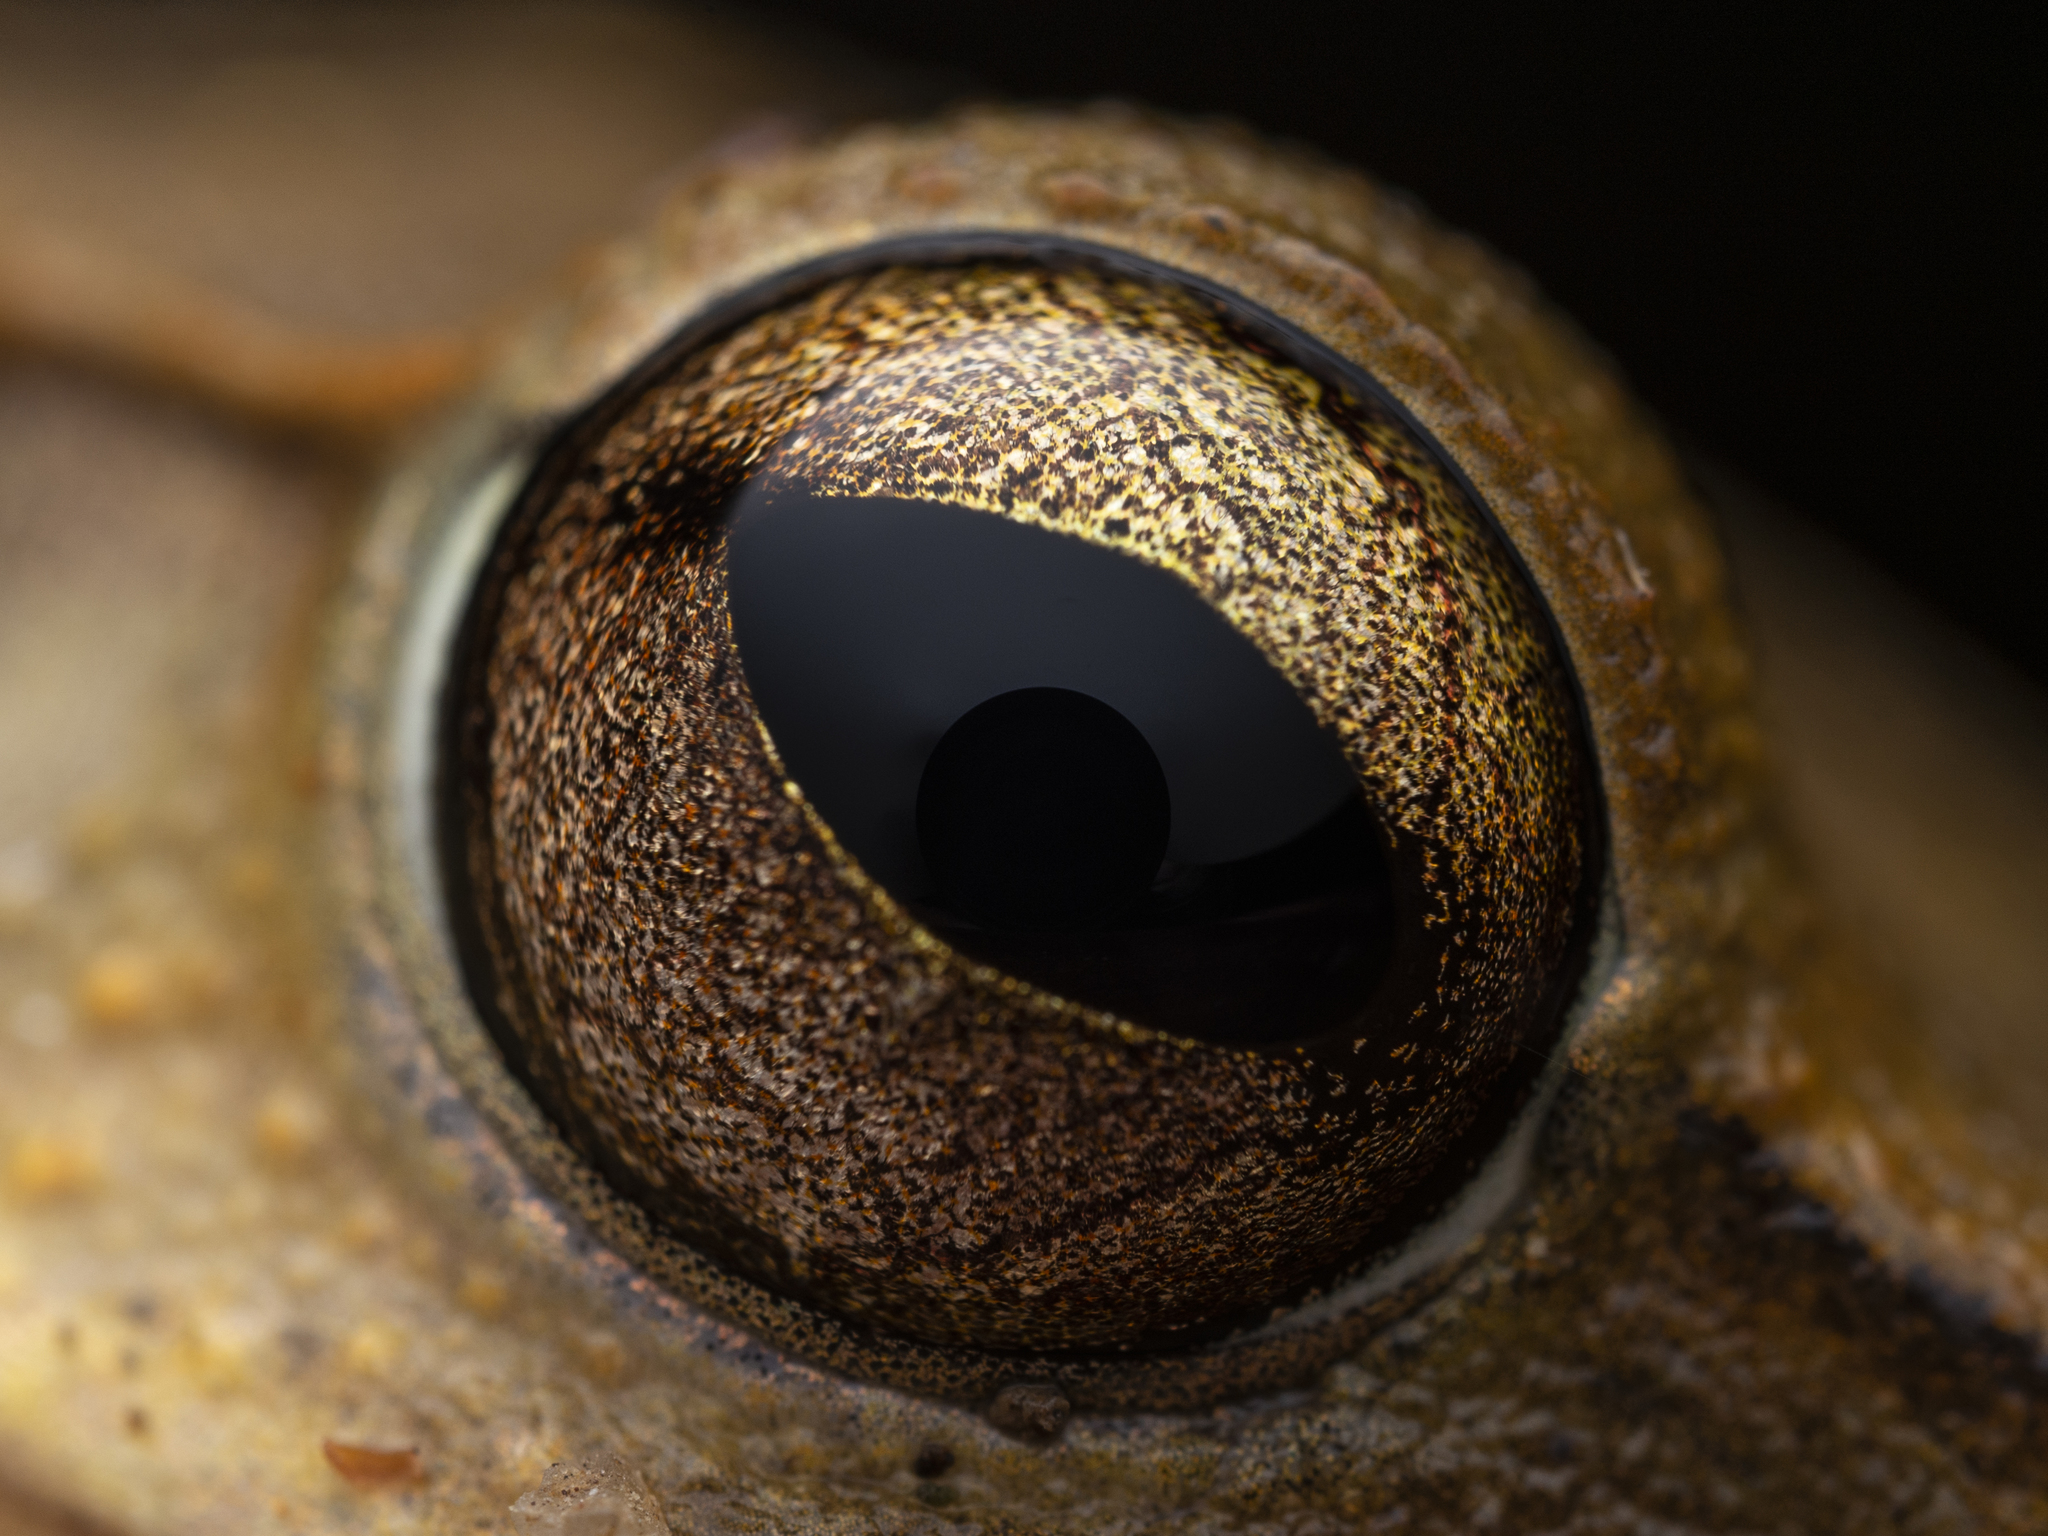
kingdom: Animalia
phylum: Chordata
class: Amphibia
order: Anura
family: Rhacophoridae
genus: Polypedates
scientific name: Polypedates megacephalus
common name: Hong kong whipping frog
